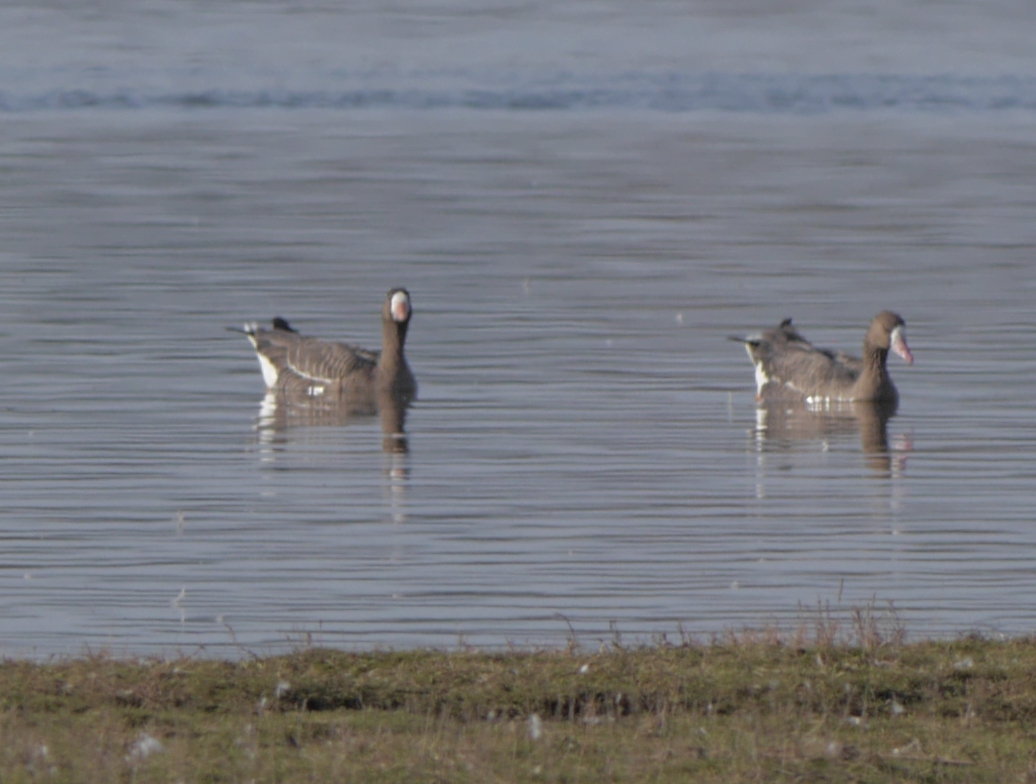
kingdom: Animalia
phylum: Chordata
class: Aves
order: Anseriformes
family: Anatidae
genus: Anser
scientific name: Anser albifrons
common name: Greater white-fronted goose
